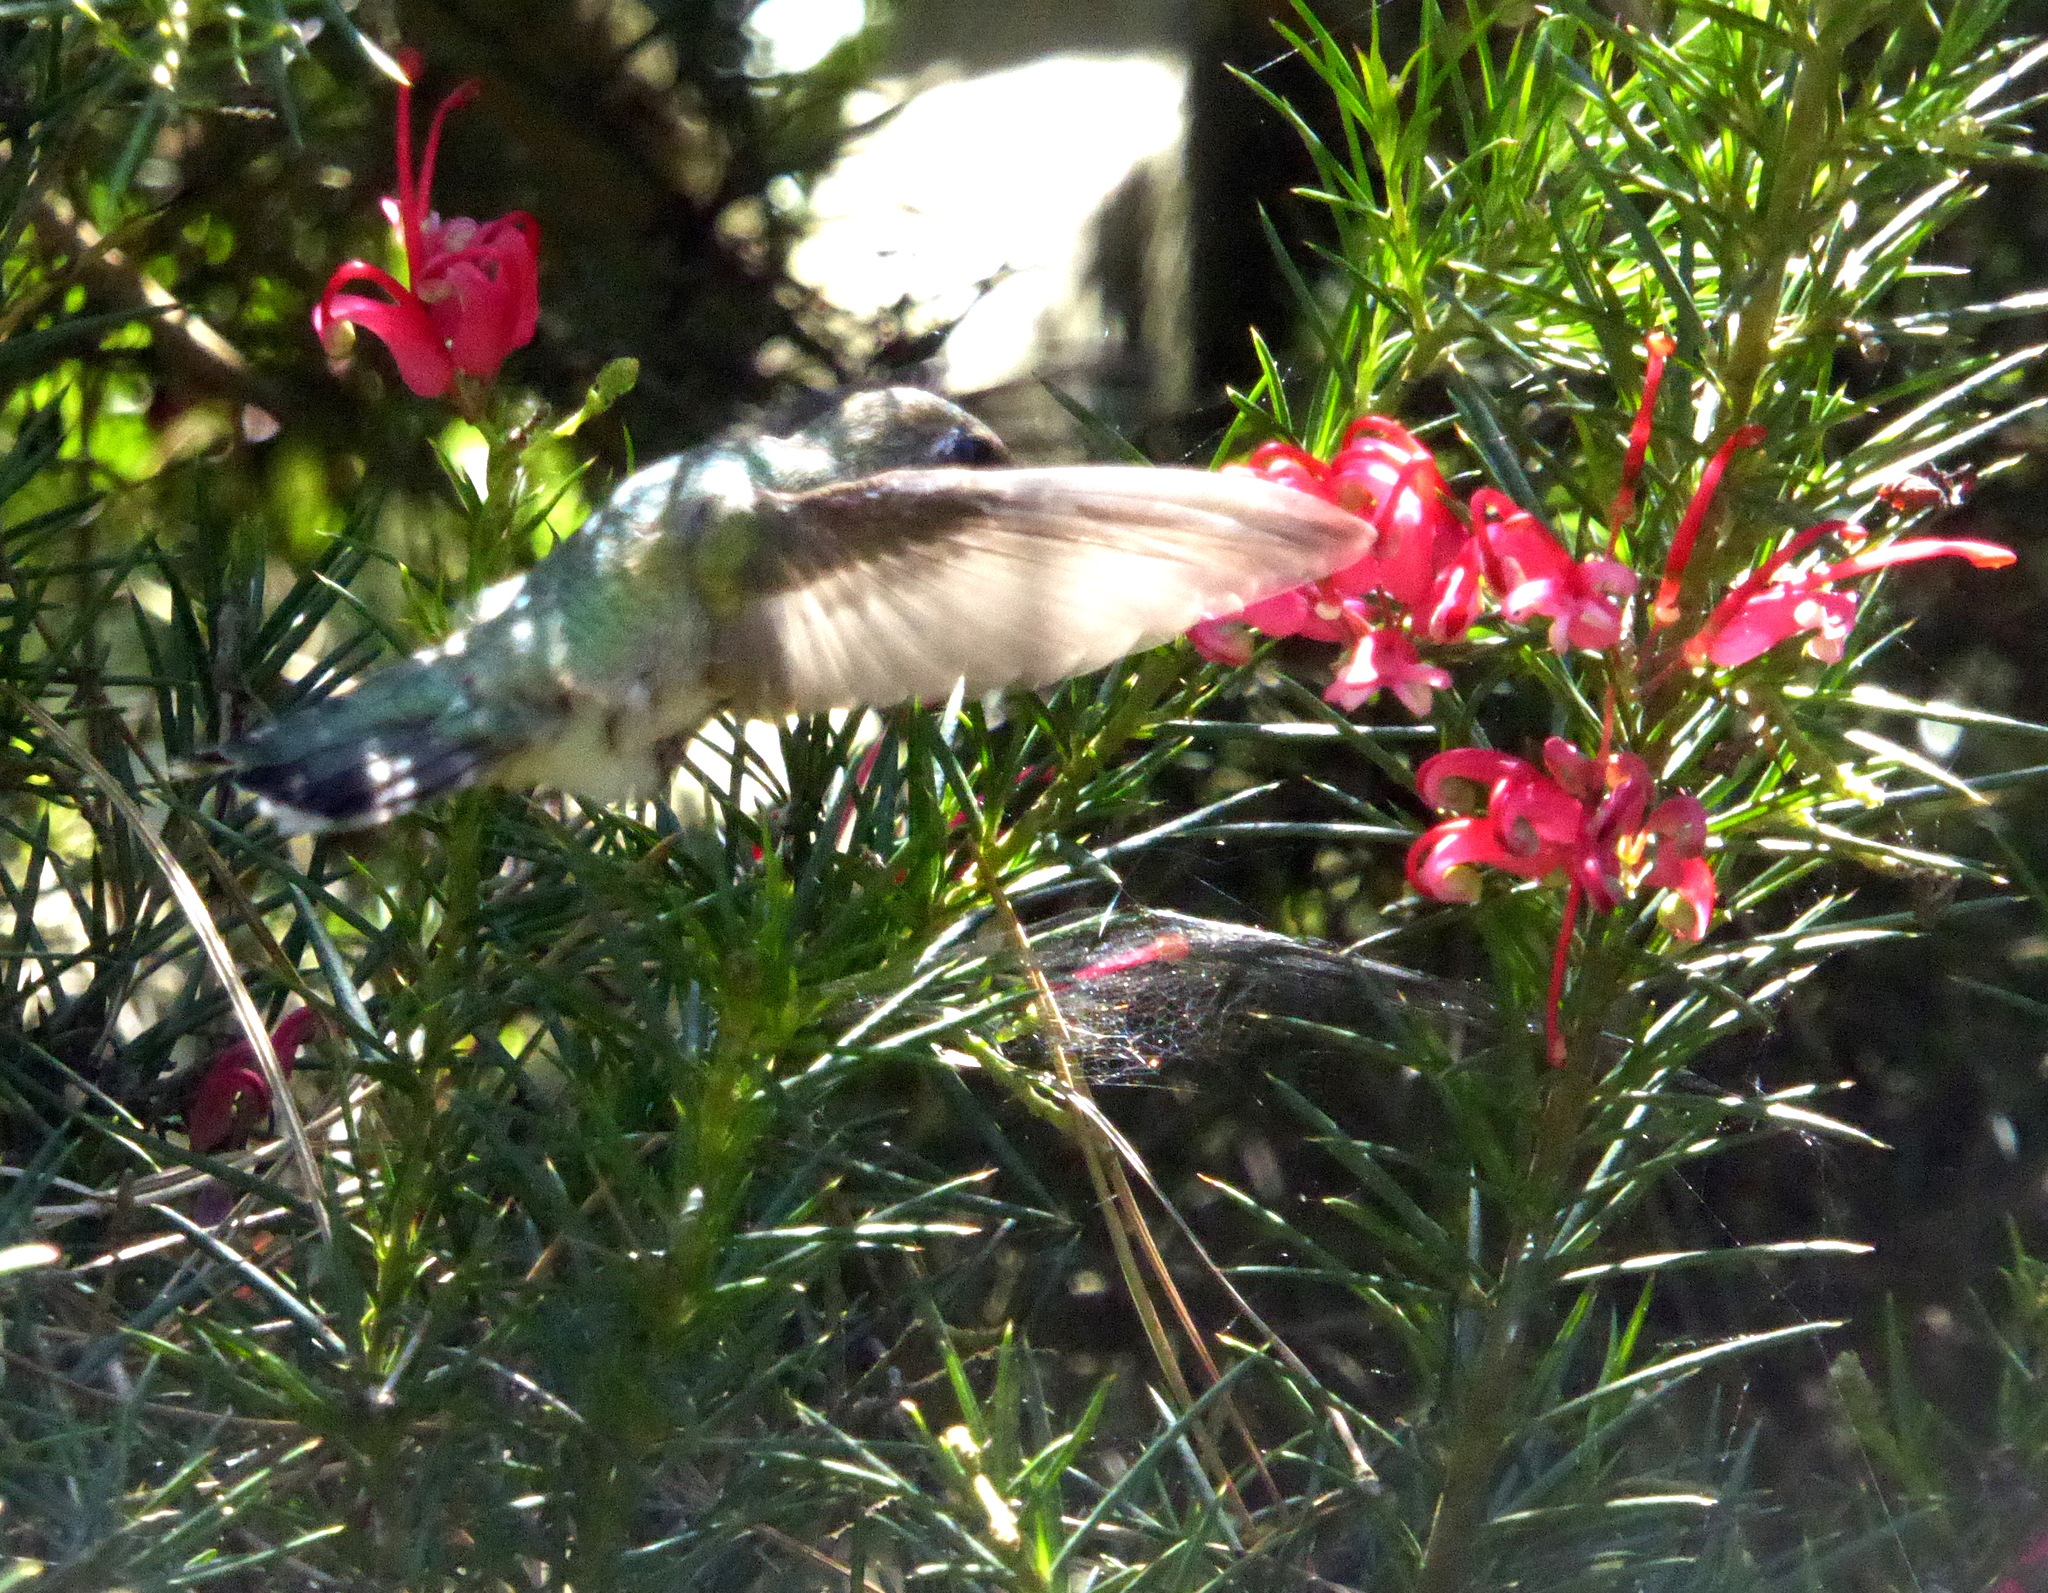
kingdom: Animalia
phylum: Chordata
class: Aves
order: Apodiformes
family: Trochilidae
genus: Calypte
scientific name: Calypte anna
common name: Anna's hummingbird
